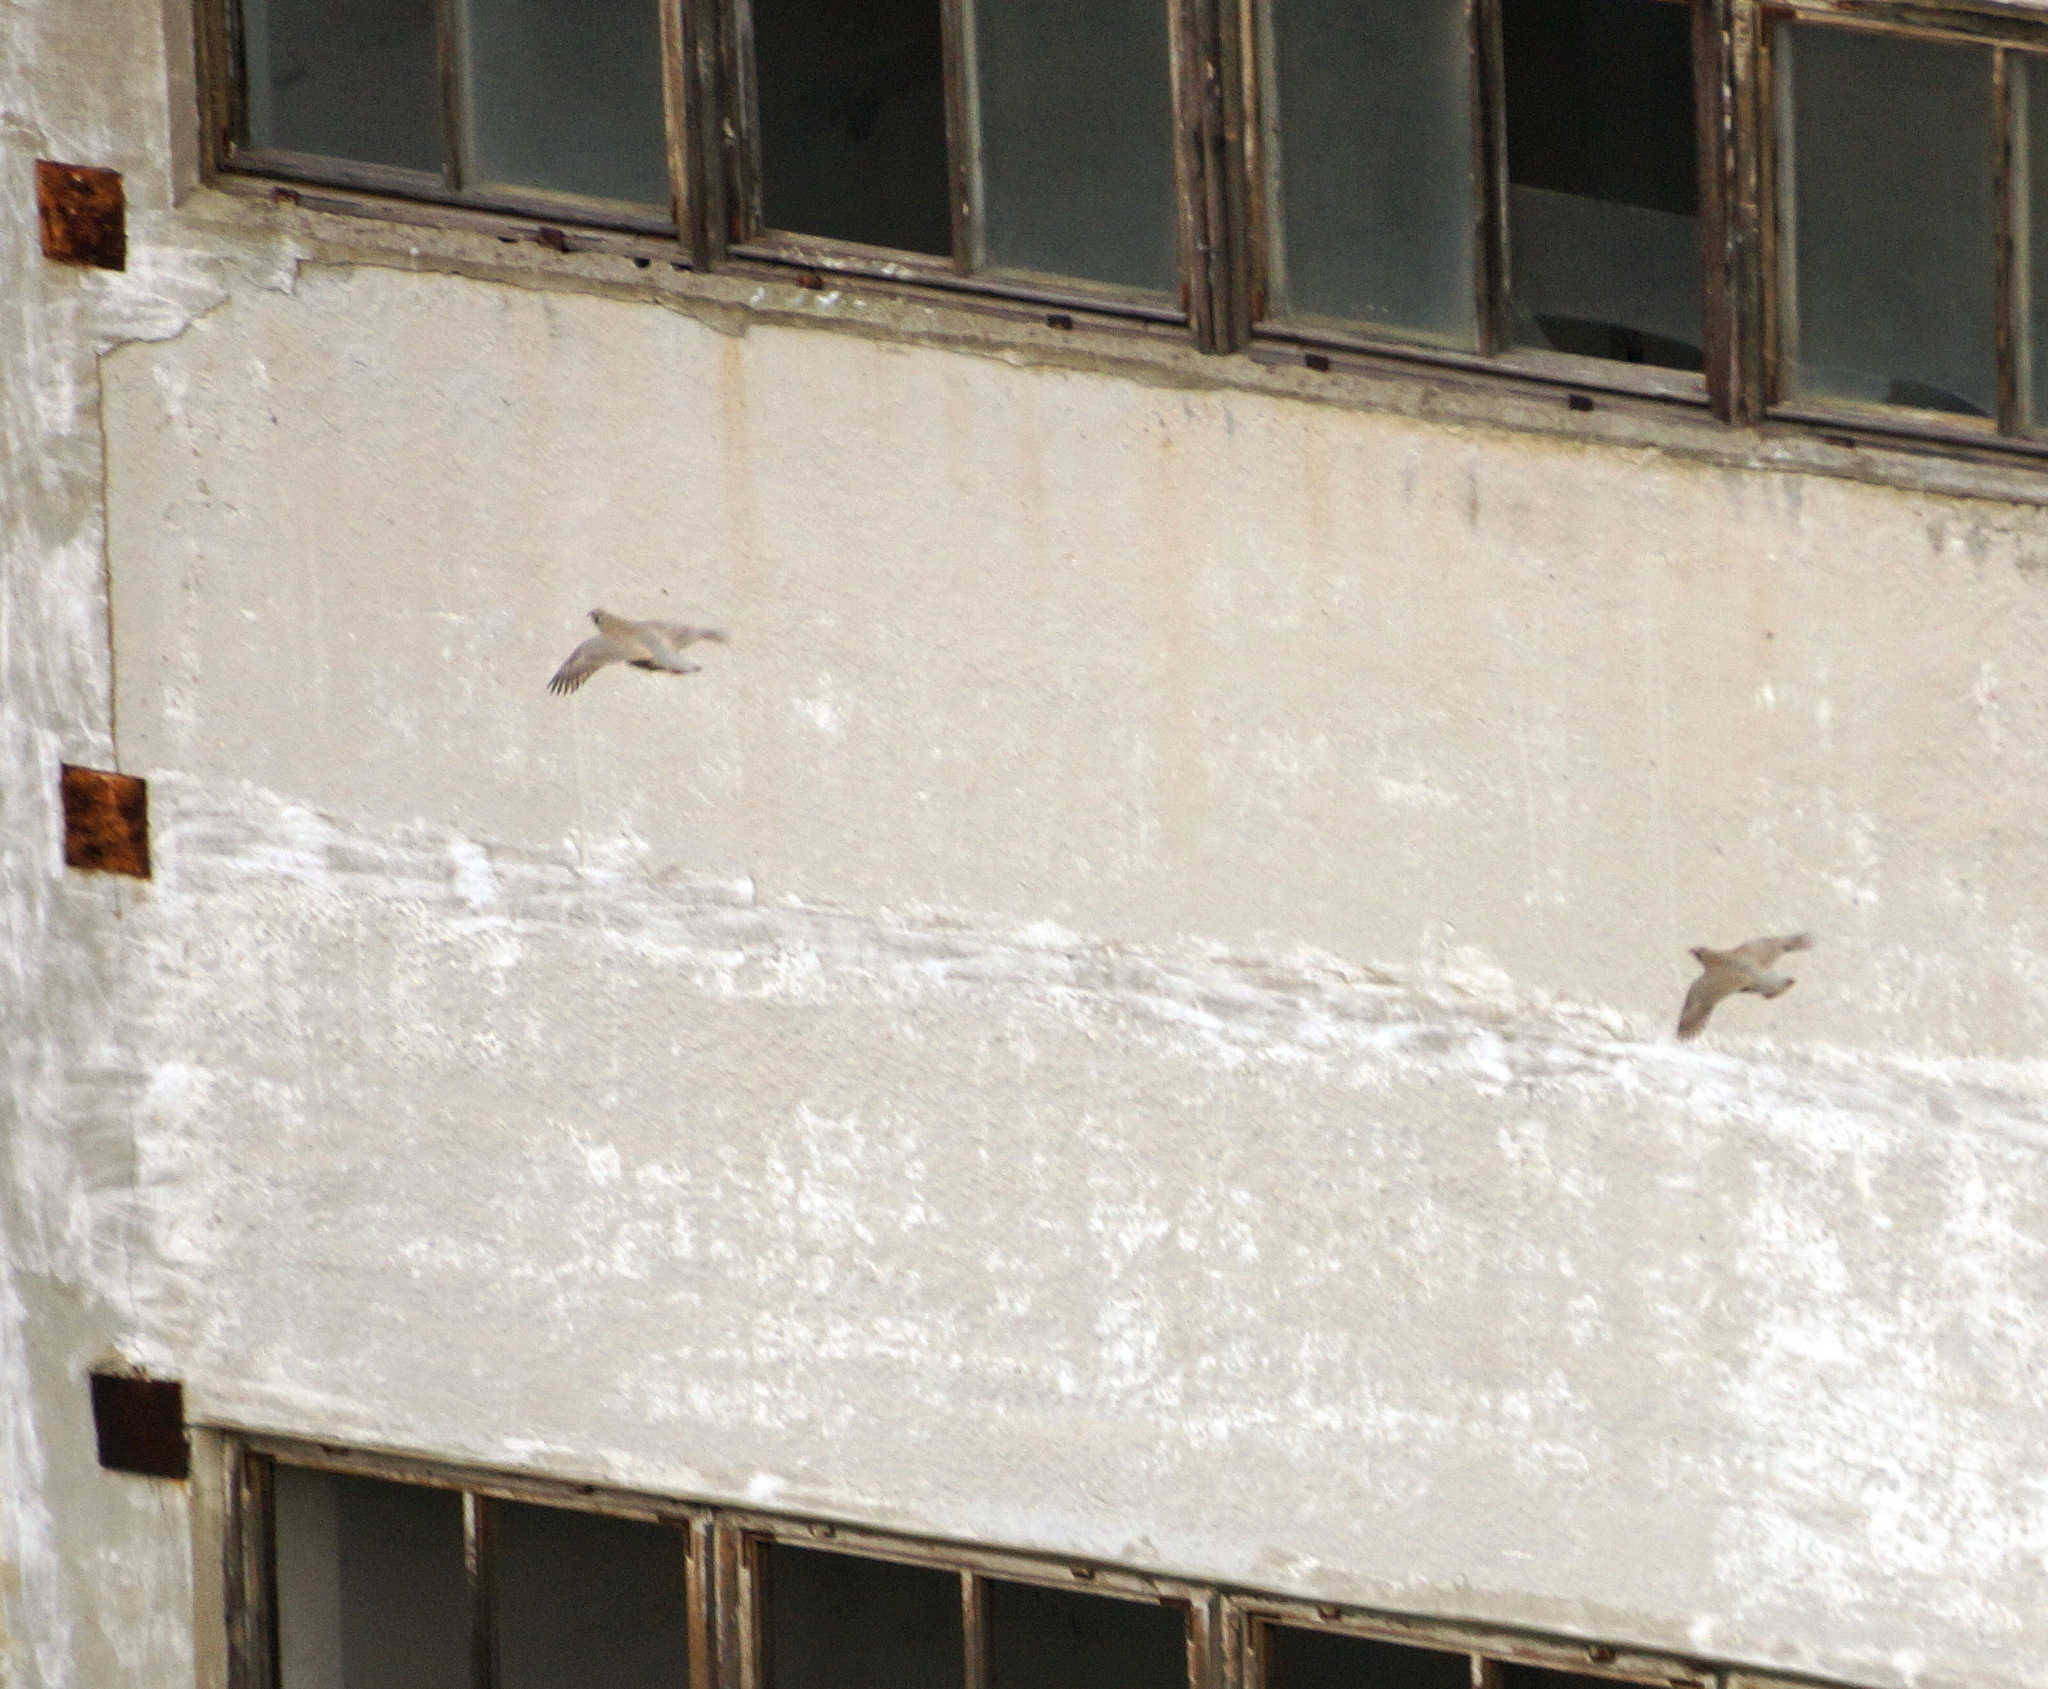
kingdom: Animalia
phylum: Chordata
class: Aves
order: Galliformes
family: Phasianidae
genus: Alectoris
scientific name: Alectoris chukar
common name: Chukar
